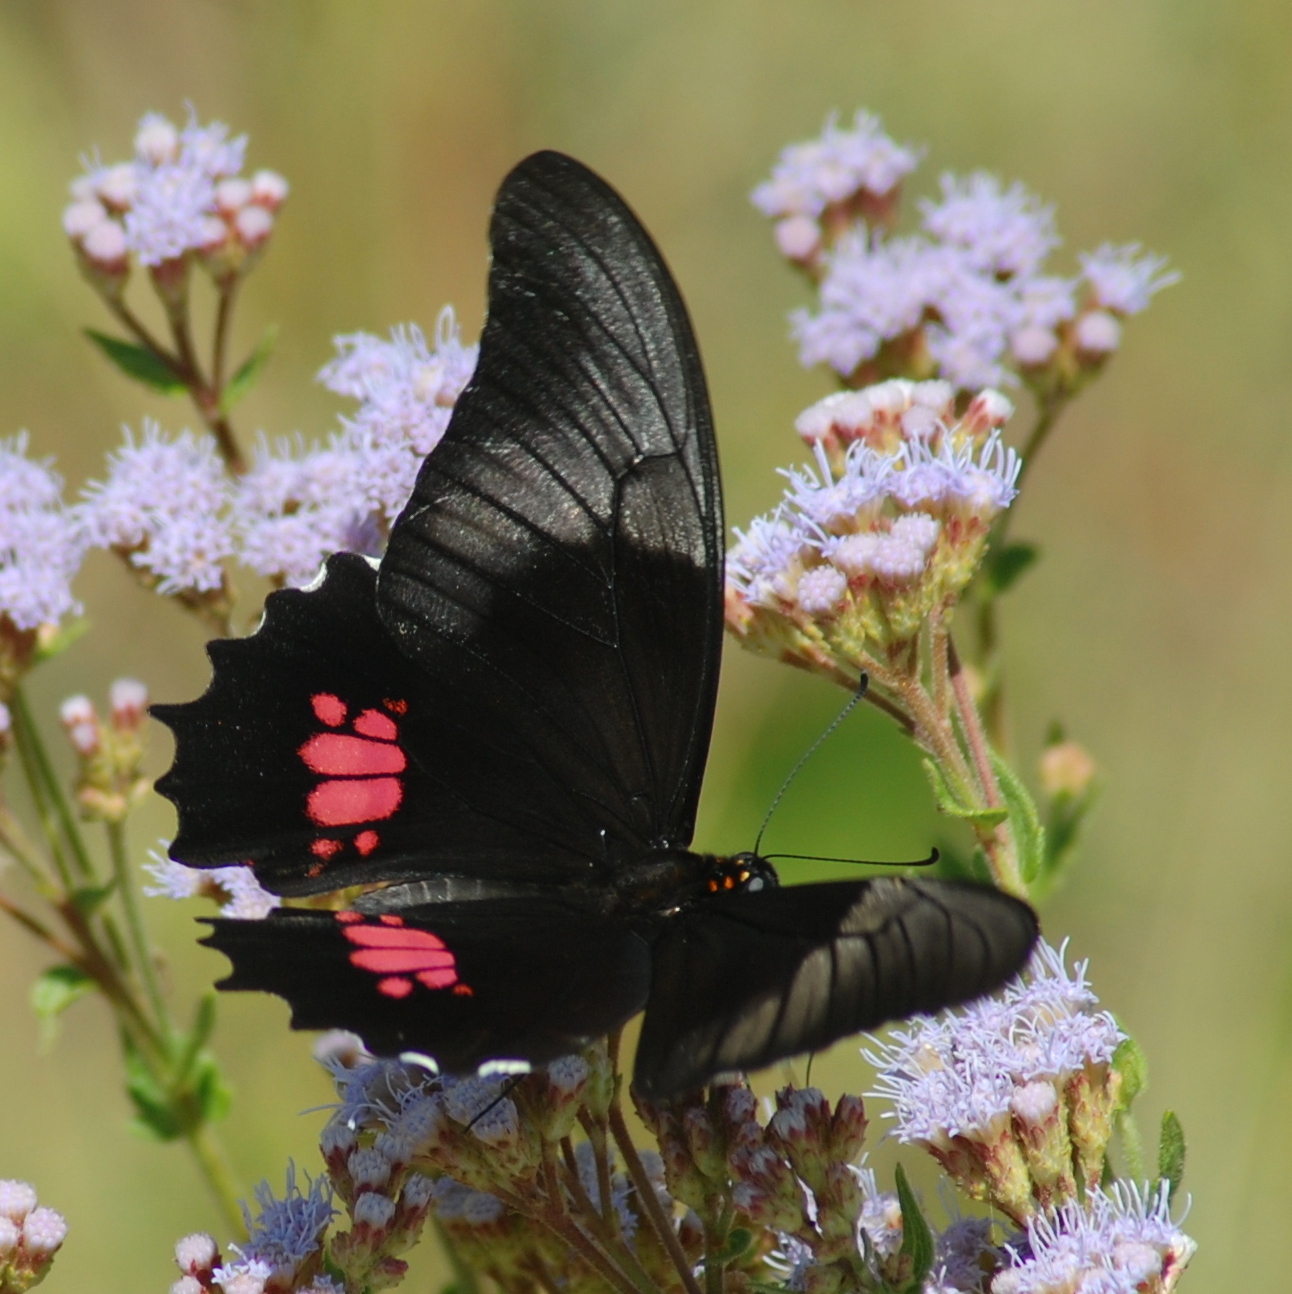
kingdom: Animalia
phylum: Arthropoda
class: Insecta
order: Lepidoptera
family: Papilionidae
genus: Papilio
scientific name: Papilio anchisiades
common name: Idaes swallowtail
